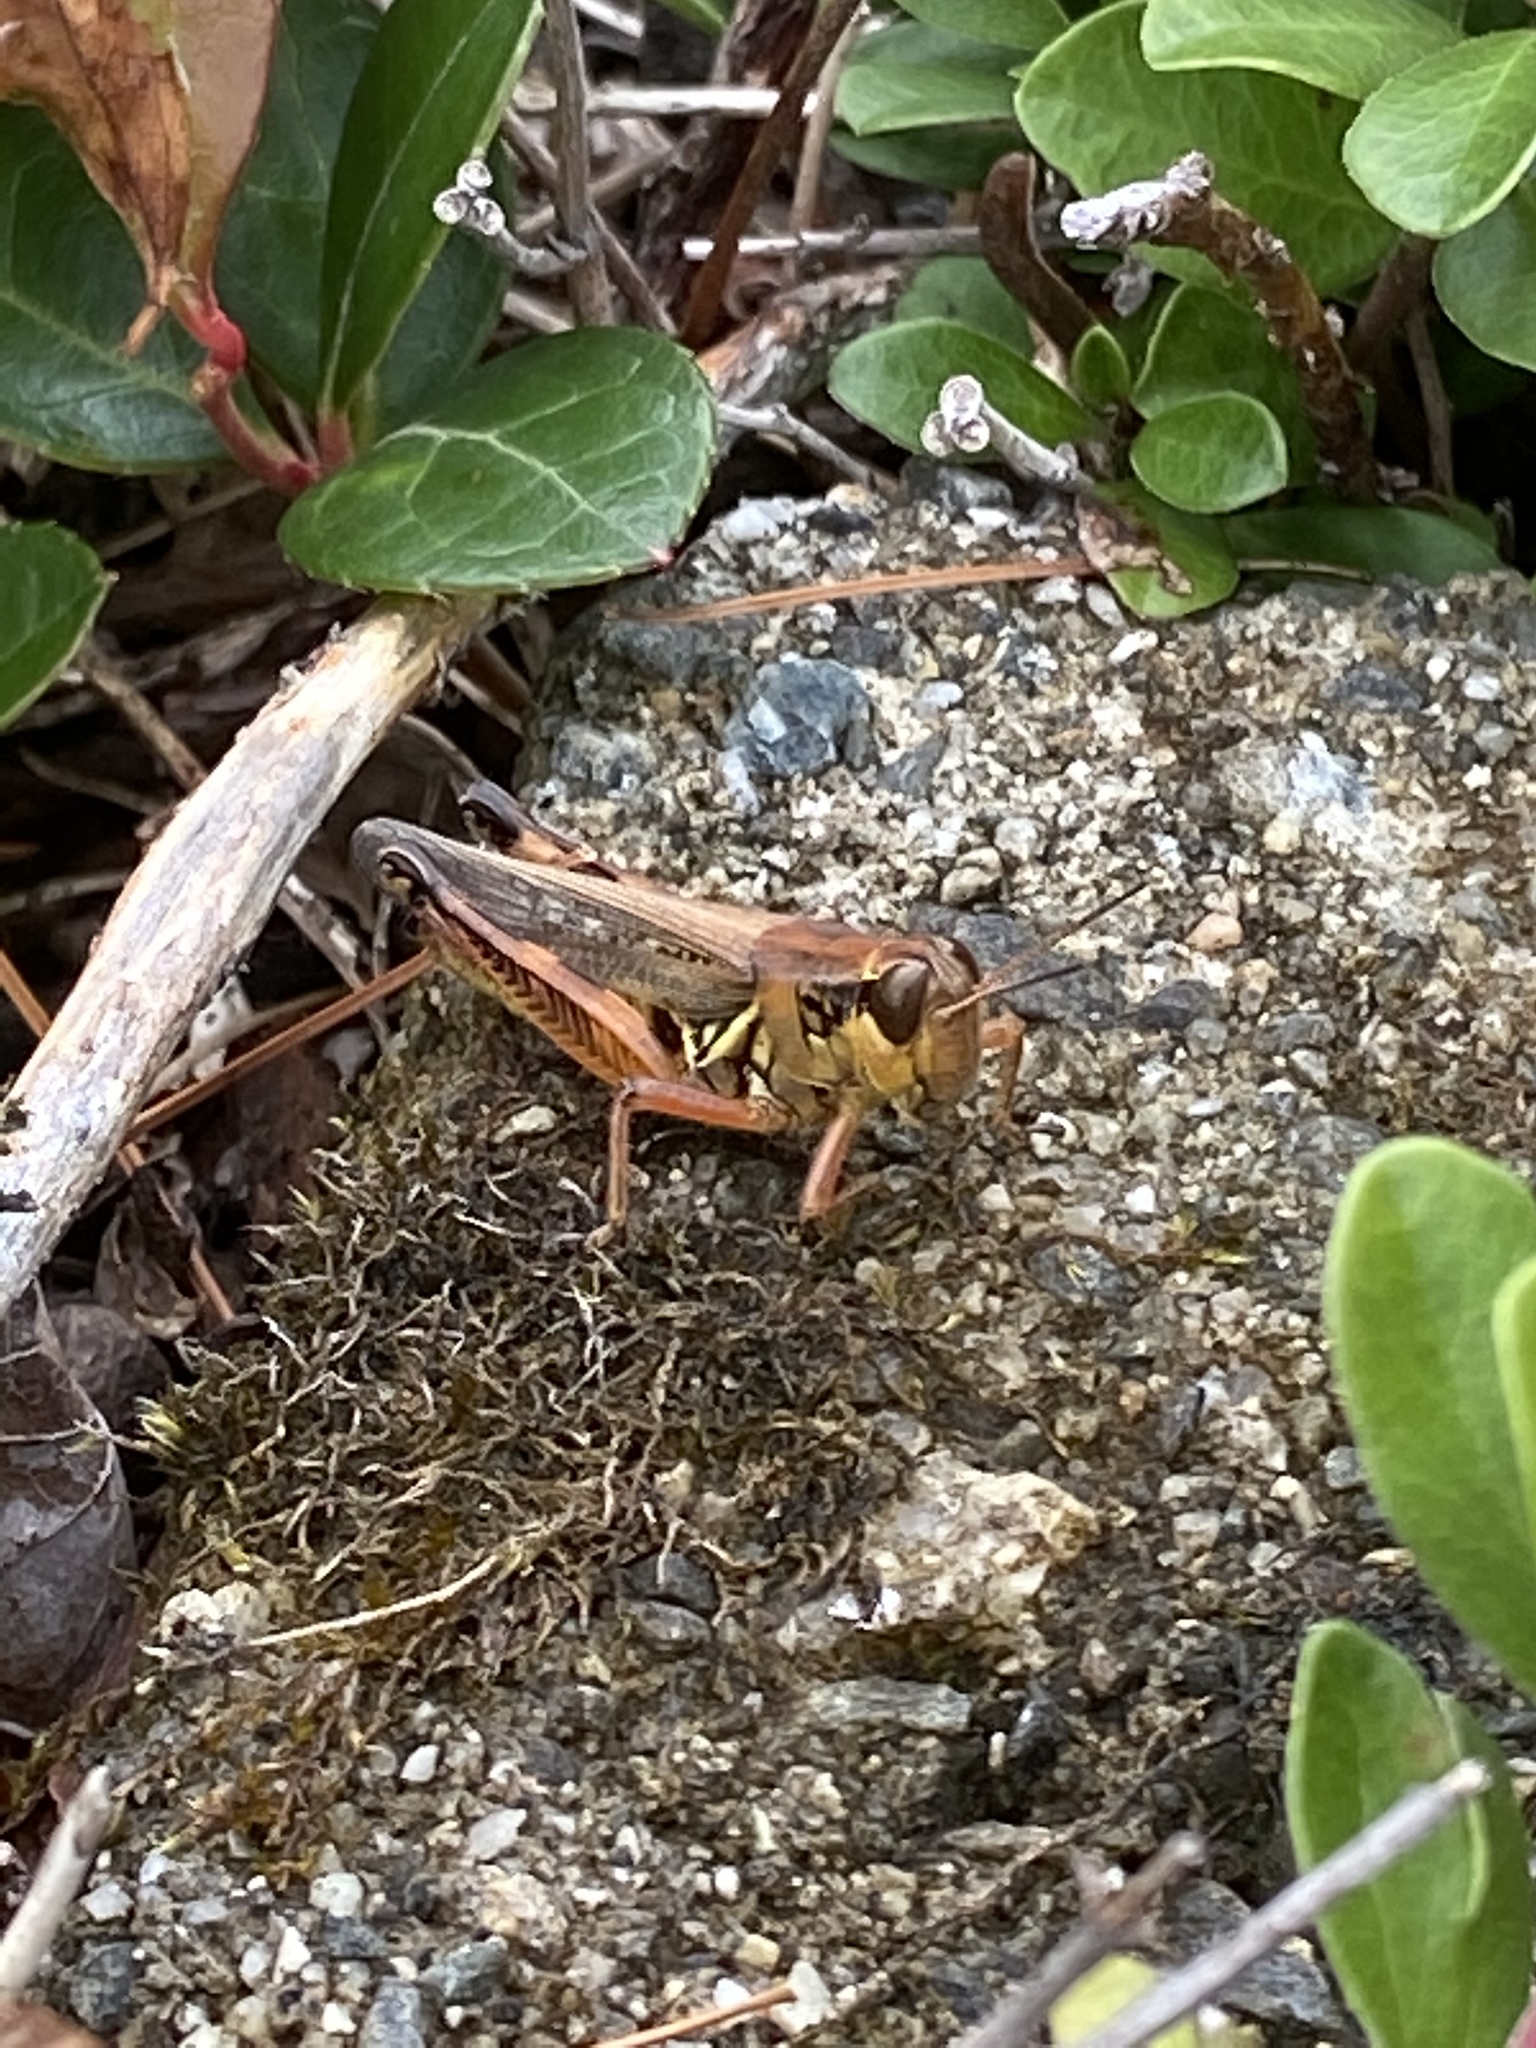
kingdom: Animalia
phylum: Arthropoda
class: Insecta
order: Orthoptera
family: Acrididae
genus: Melanoplus
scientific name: Melanoplus femurrubrum
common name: Red-legged grasshopper
